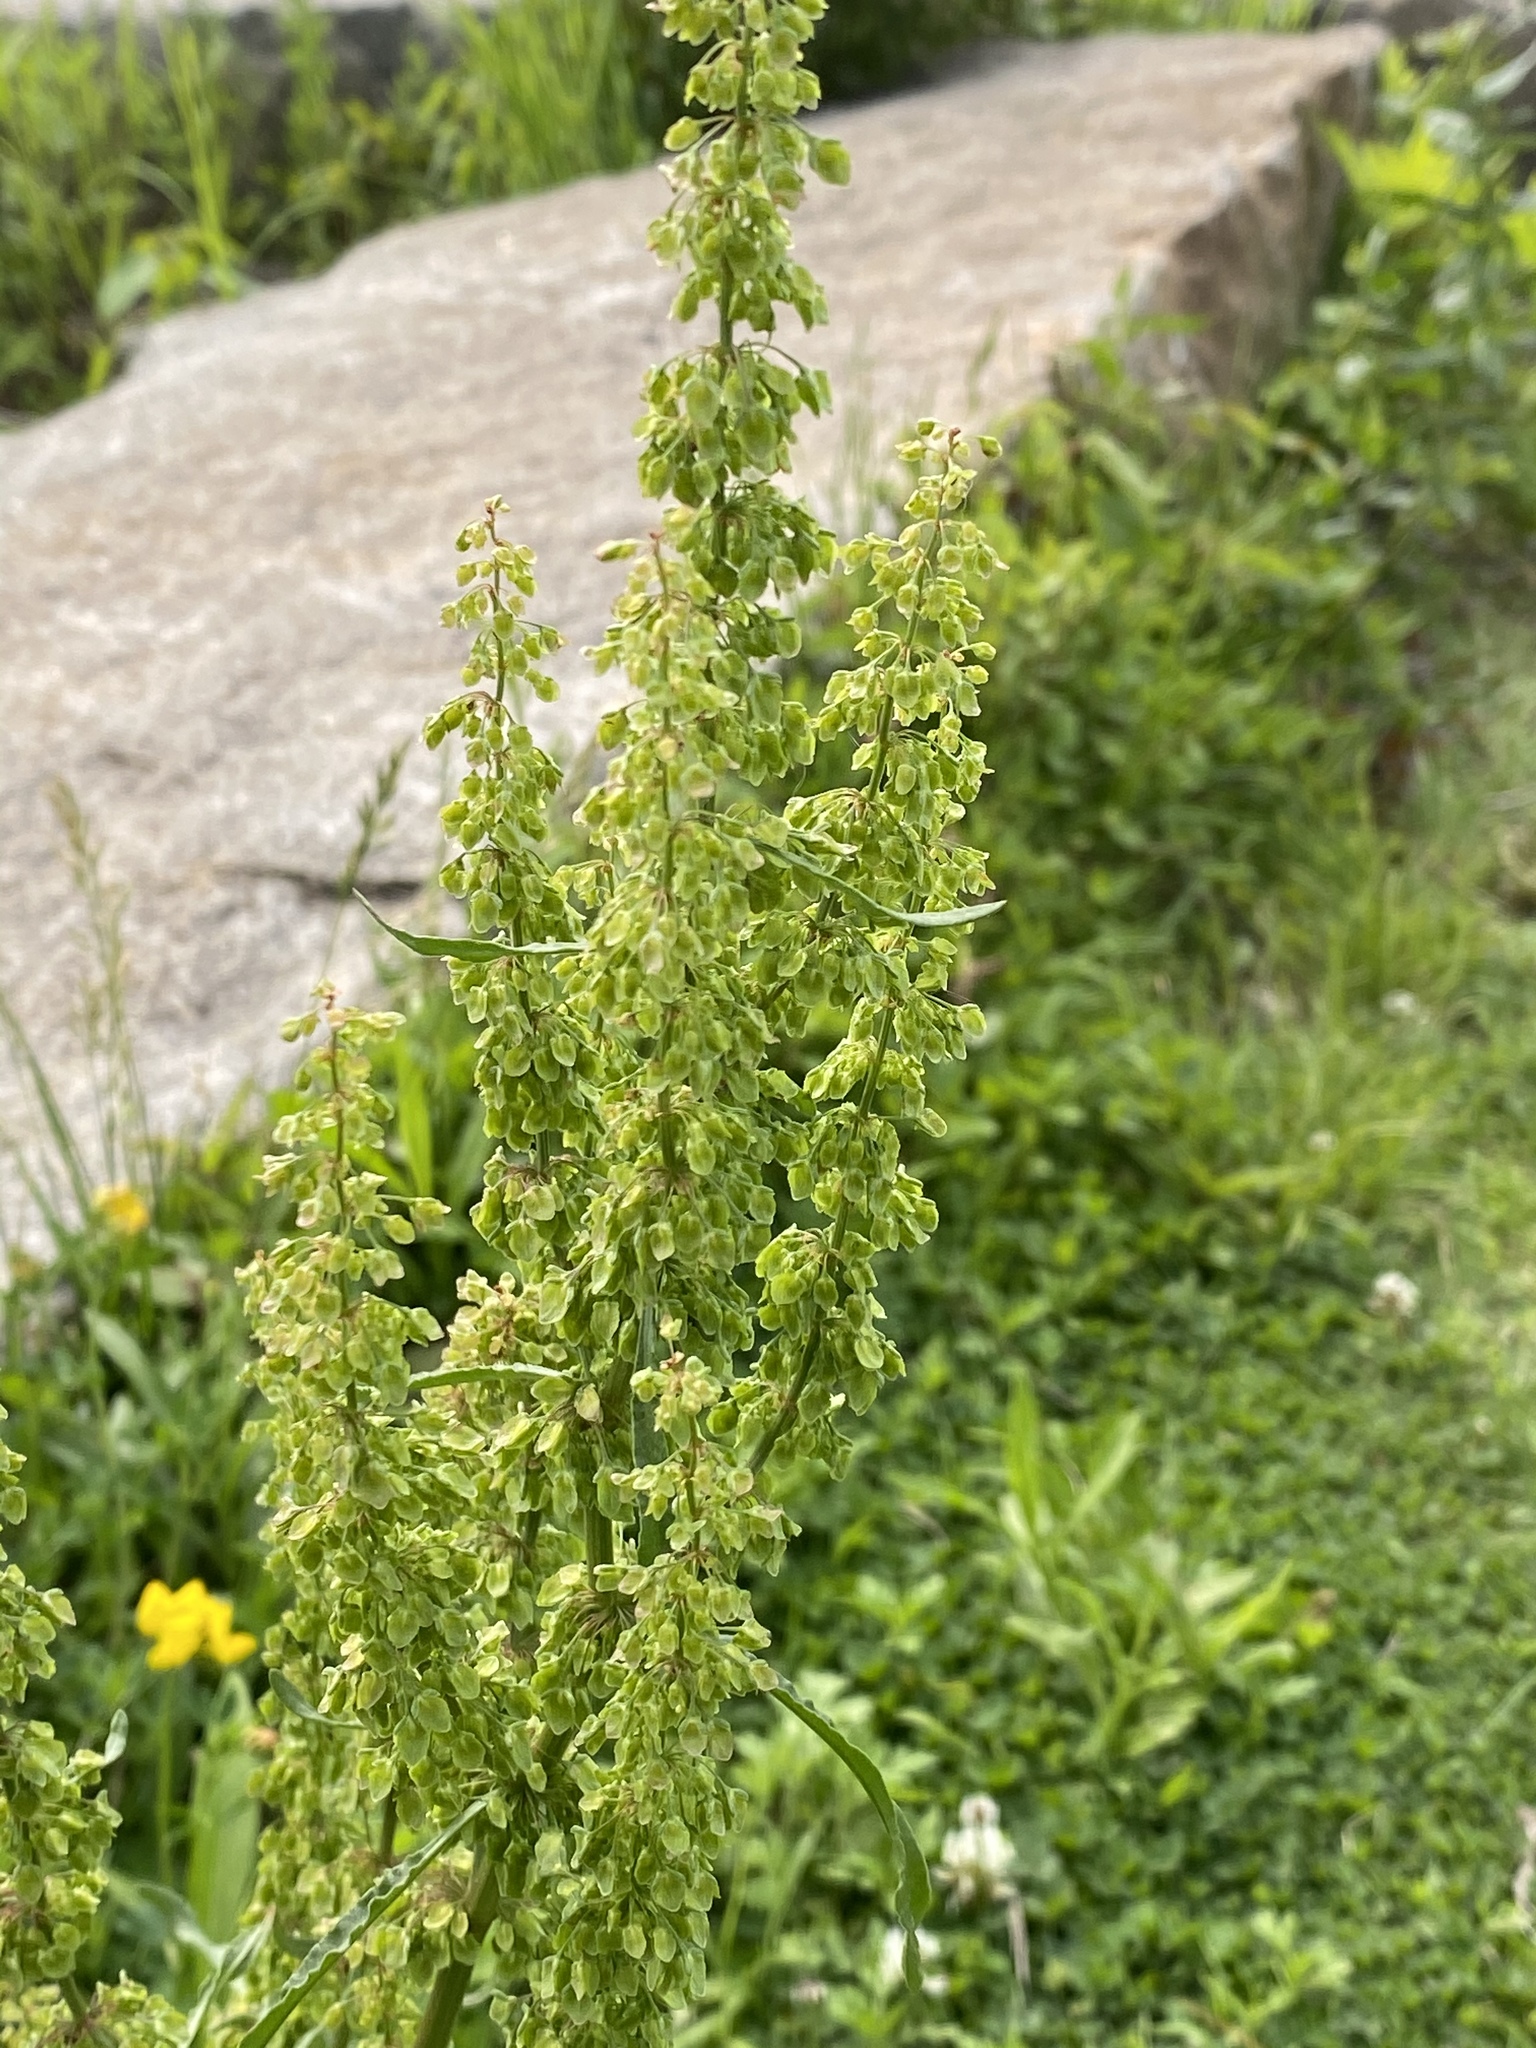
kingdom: Plantae
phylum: Tracheophyta
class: Magnoliopsida
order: Caryophyllales
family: Polygonaceae
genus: Rumex
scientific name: Rumex crispus
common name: Curled dock
